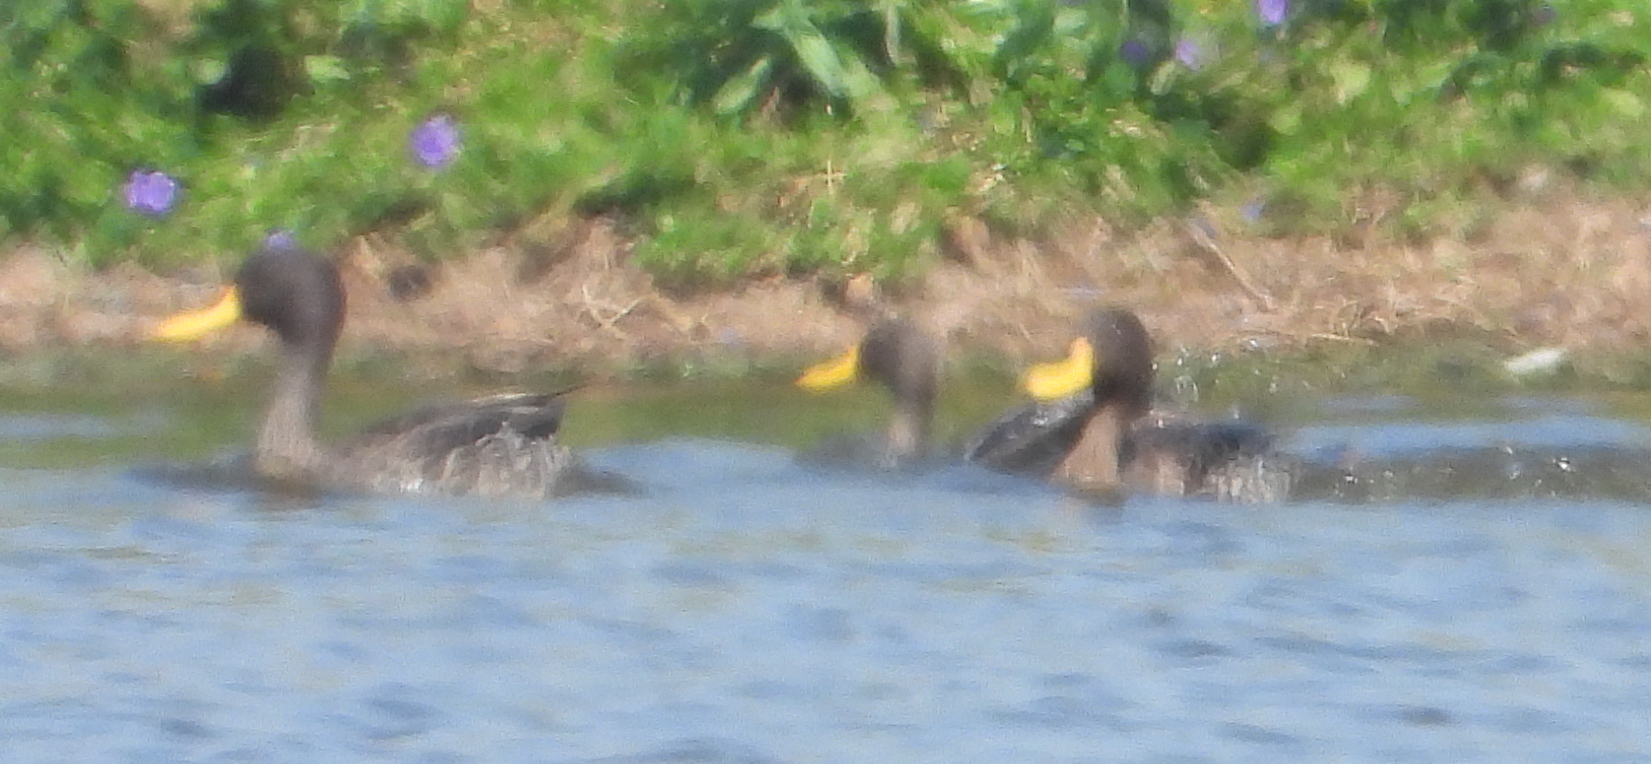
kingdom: Animalia
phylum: Chordata
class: Aves
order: Anseriformes
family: Anatidae
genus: Anas
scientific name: Anas undulata
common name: Yellow-billed duck
